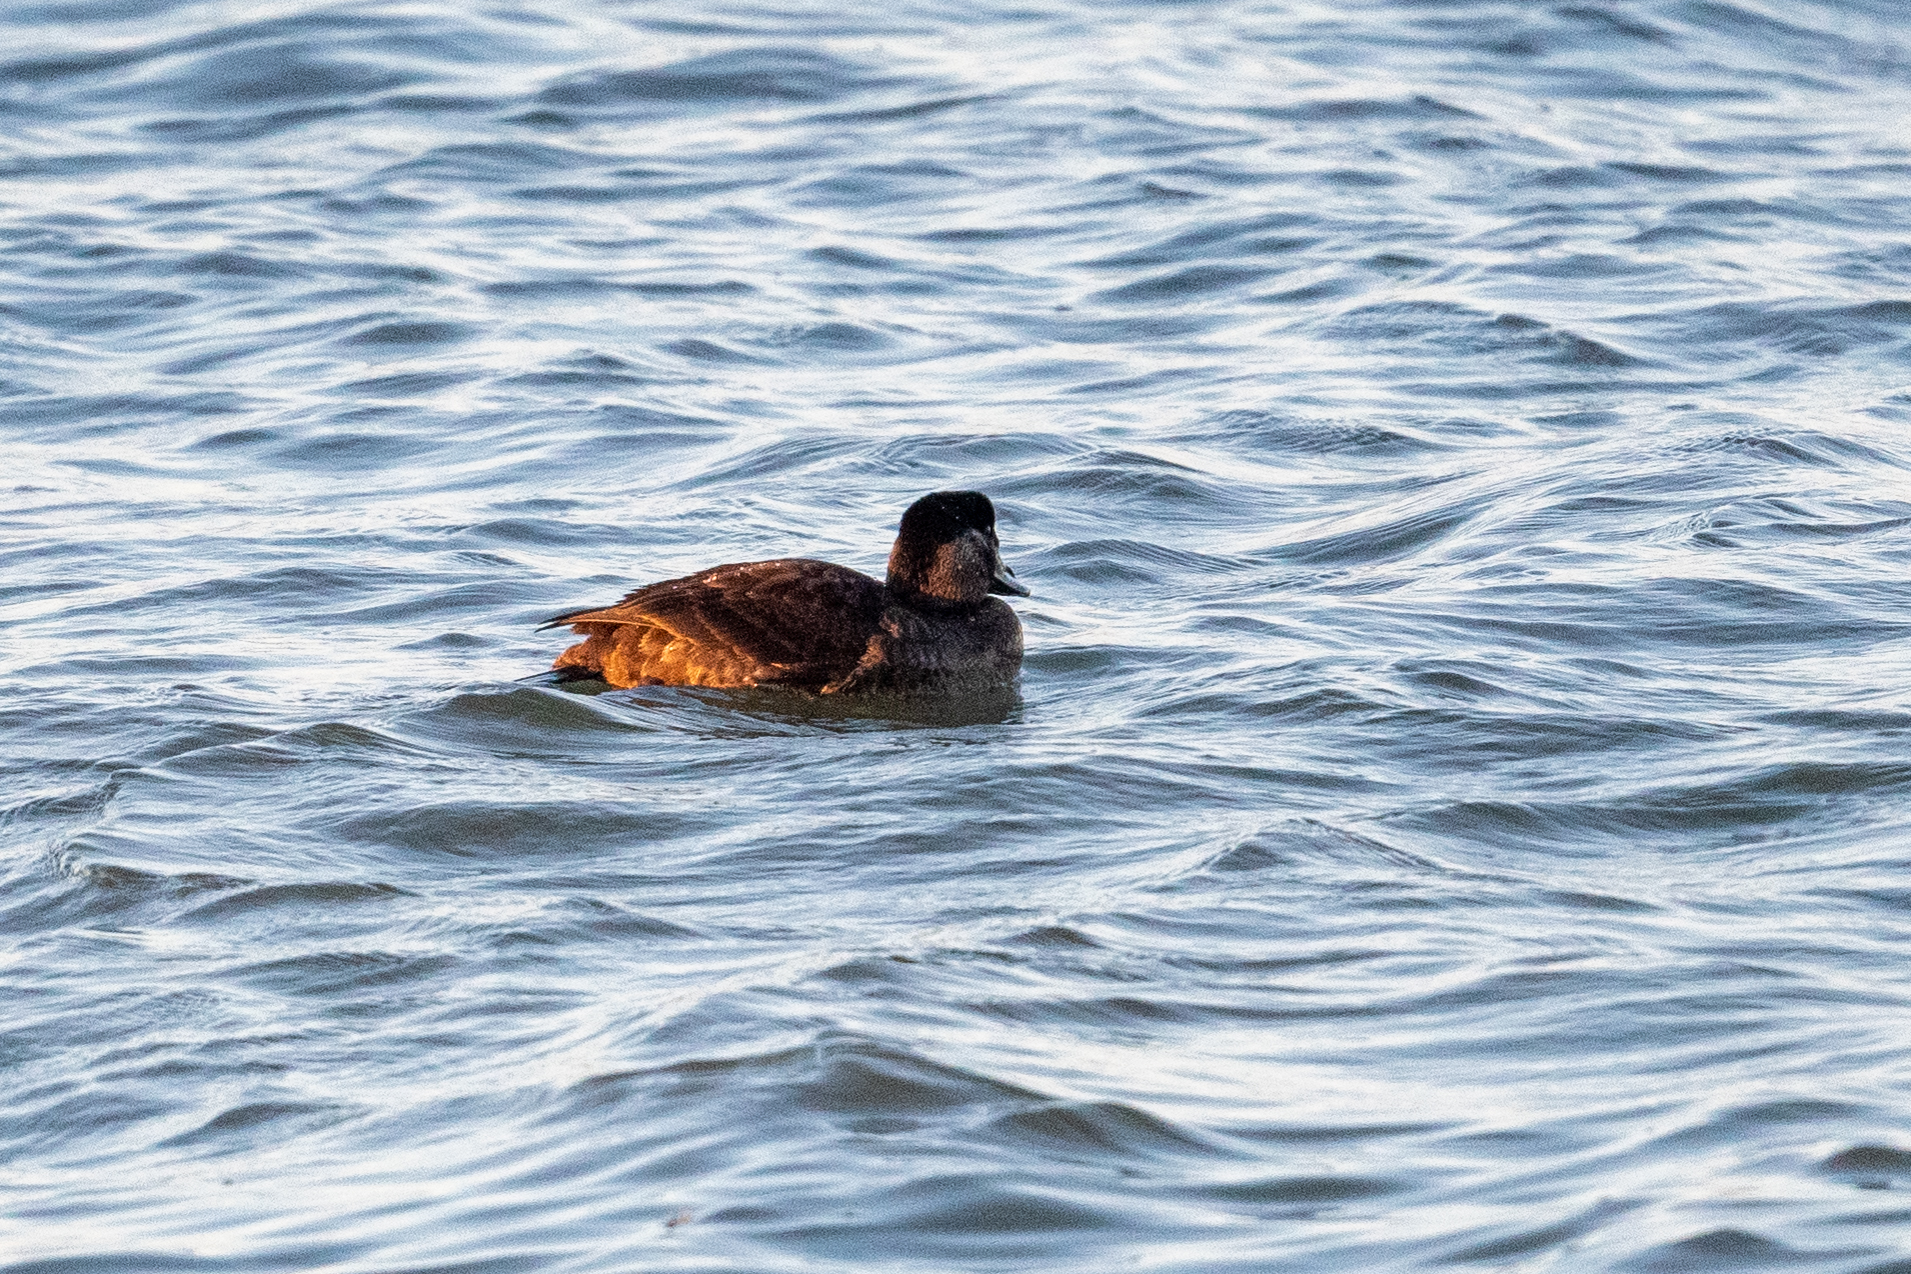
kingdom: Animalia
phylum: Chordata
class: Aves
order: Anseriformes
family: Anatidae
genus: Melanitta
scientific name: Melanitta perspicillata
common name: Surf scoter
